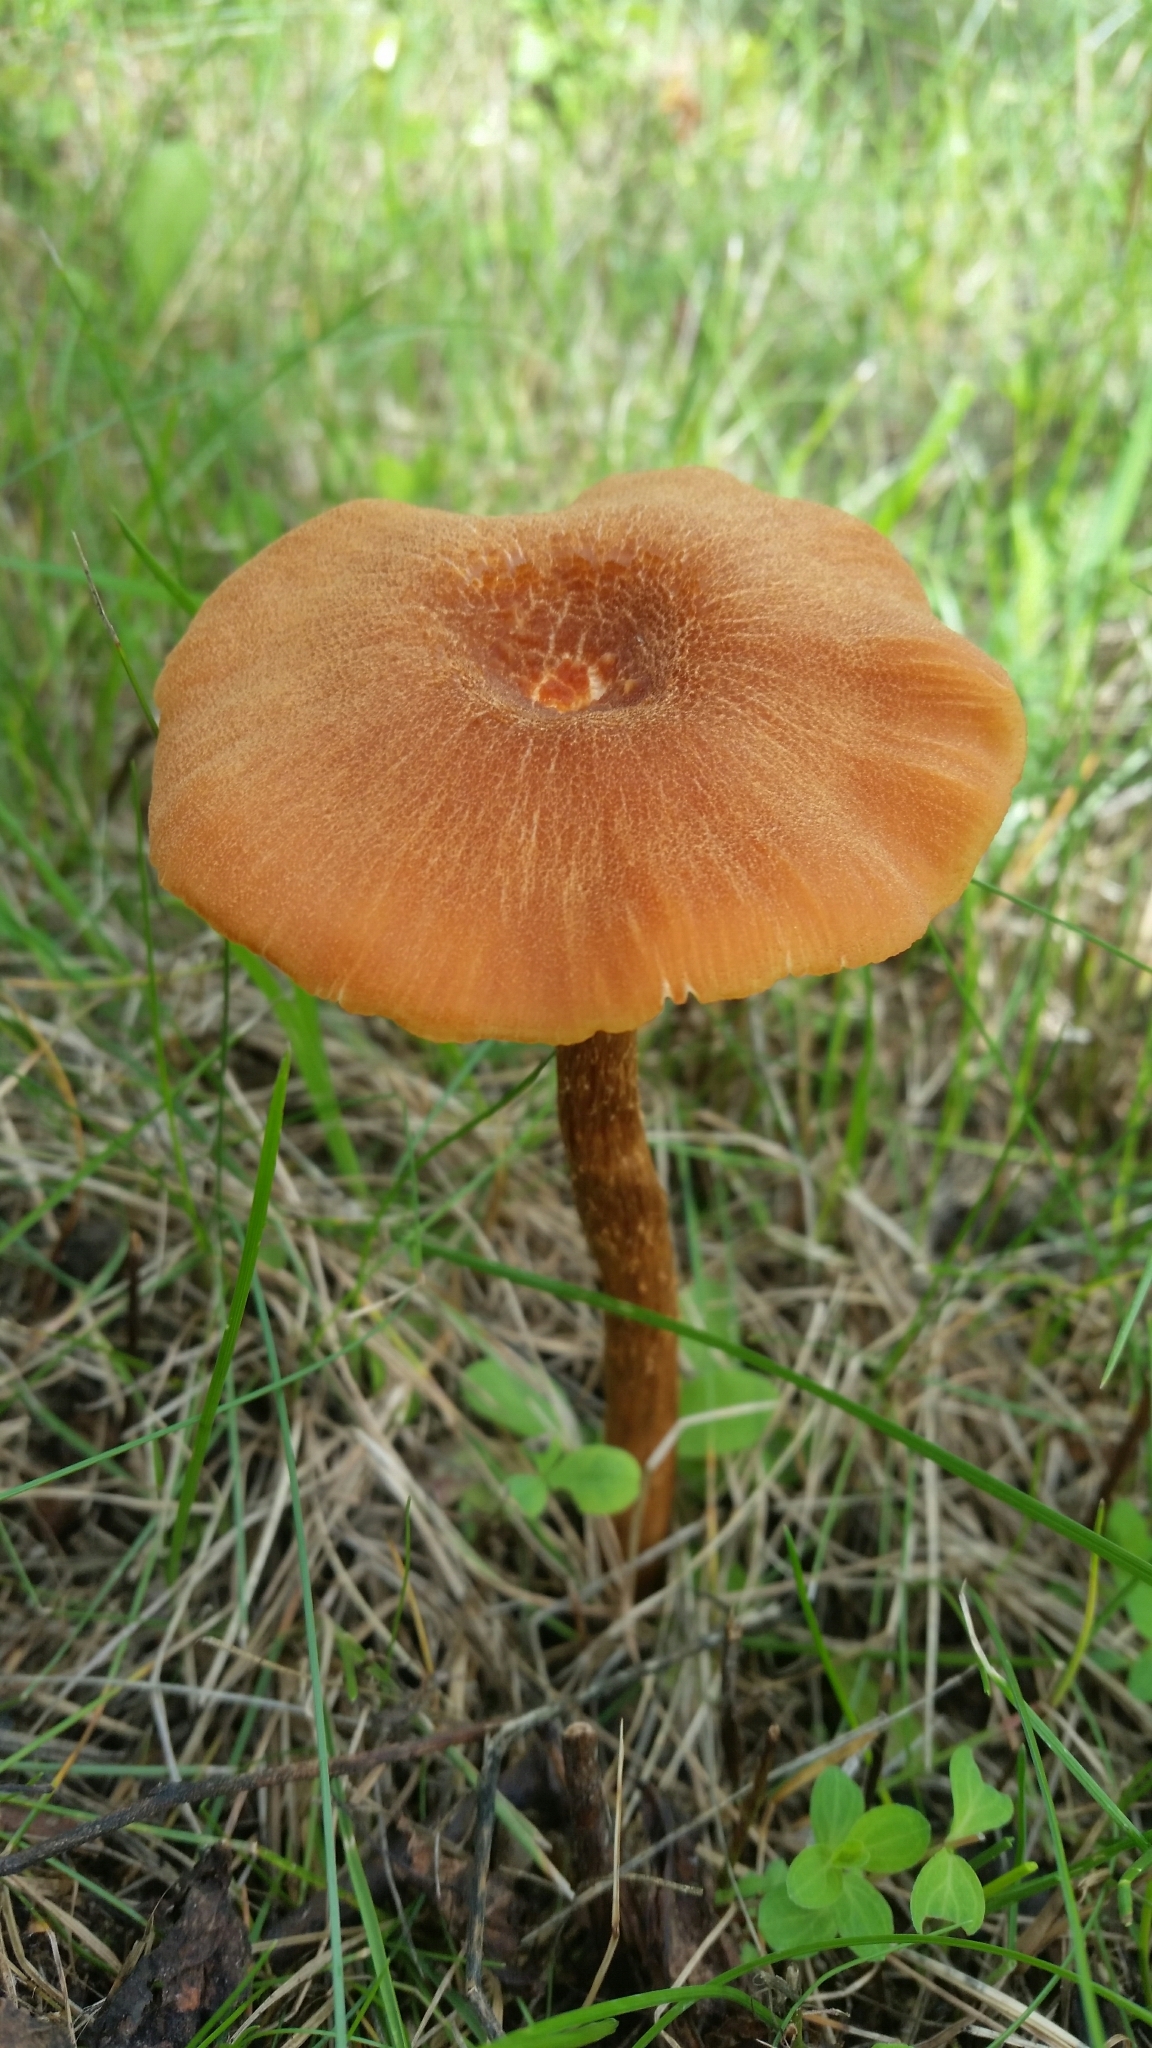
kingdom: Fungi
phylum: Basidiomycota
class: Agaricomycetes
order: Agaricales
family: Hydnangiaceae
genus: Laccaria
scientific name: Laccaria proxima
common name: Scurfy deceiver
